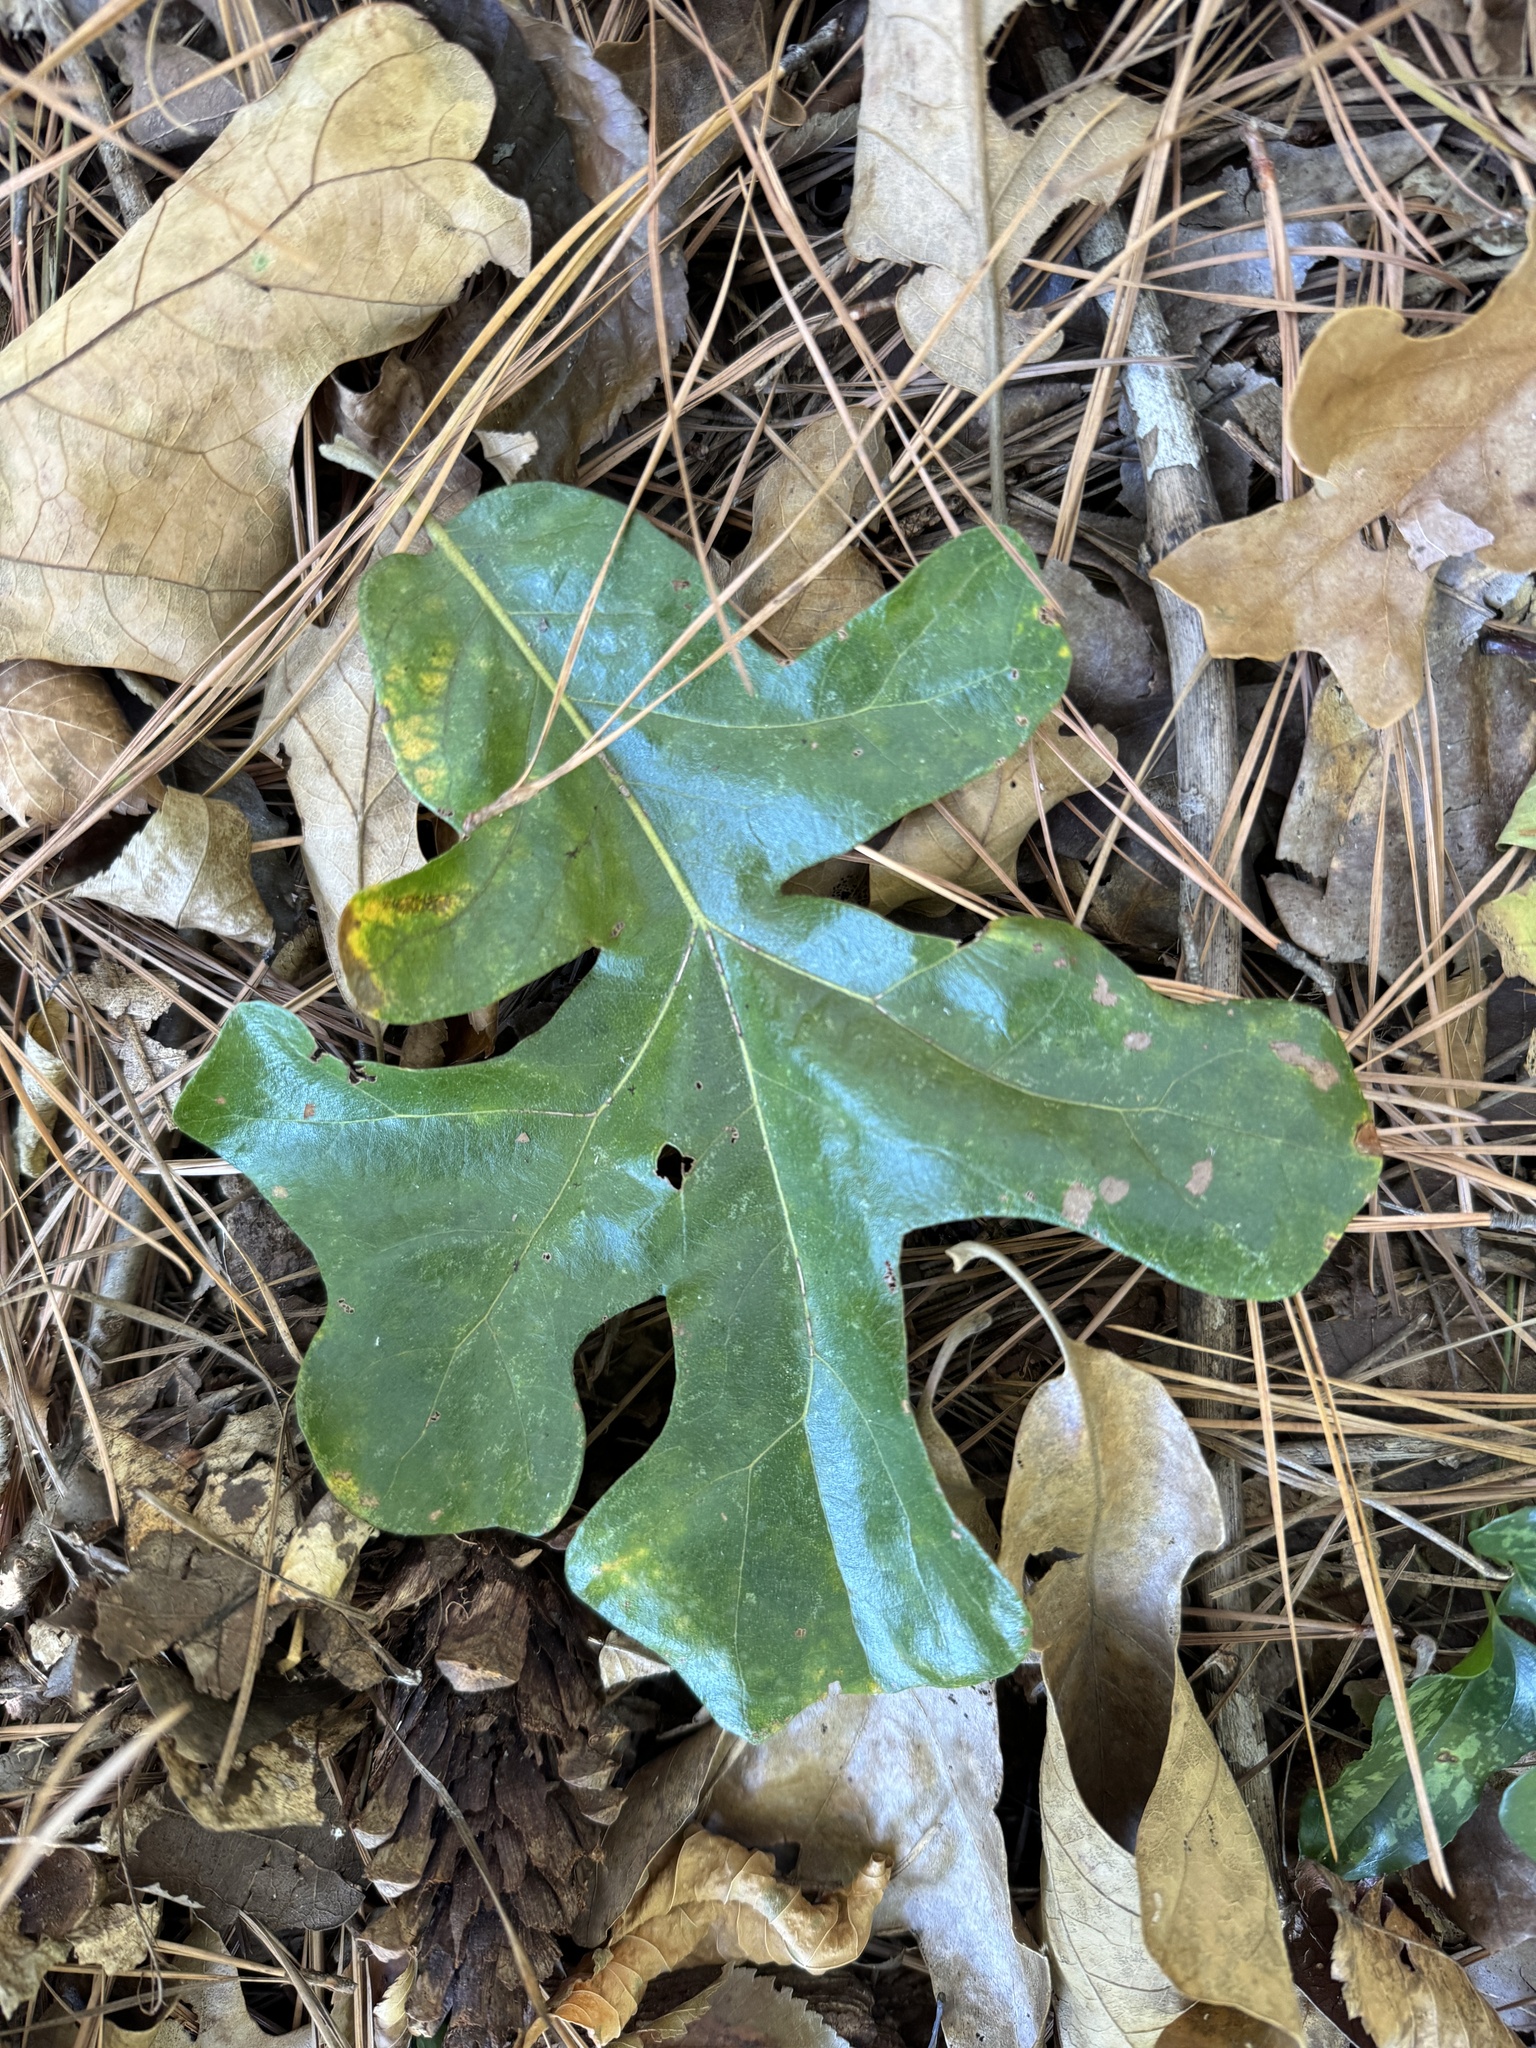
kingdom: Plantae
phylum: Tracheophyta
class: Magnoliopsida
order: Fagales
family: Fagaceae
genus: Quercus
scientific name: Quercus stellata
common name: Post oak
